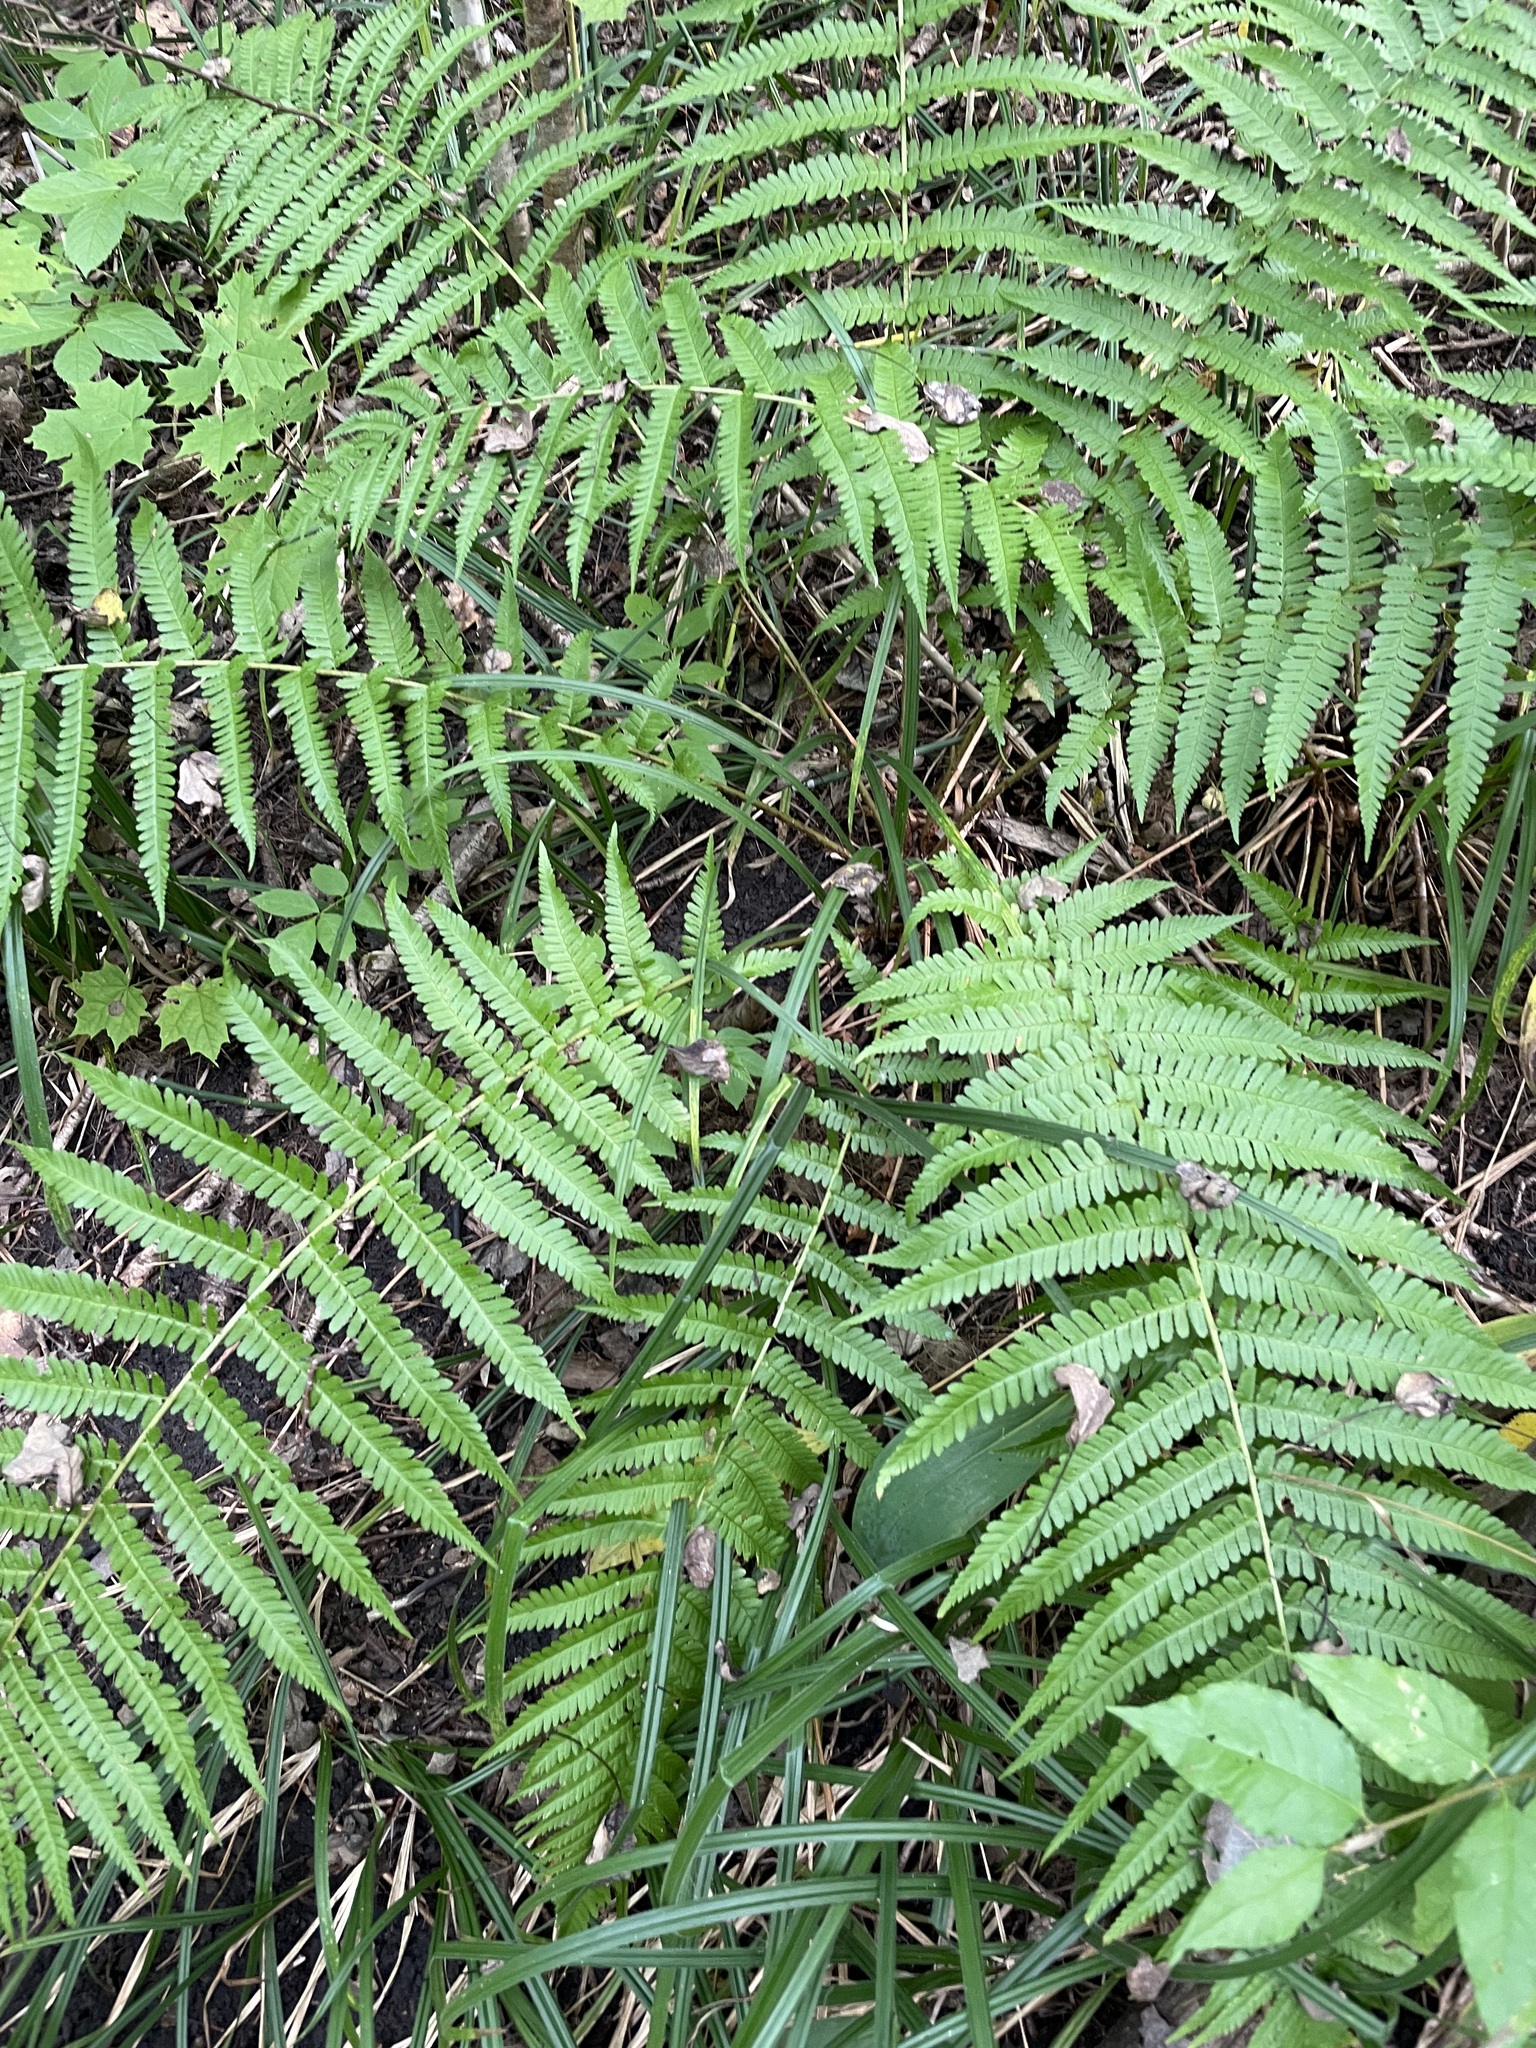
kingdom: Plantae
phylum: Tracheophyta
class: Polypodiopsida
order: Polypodiales
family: Dryopteridaceae
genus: Dryopteris
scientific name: Dryopteris filix-mas
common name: Male fern
